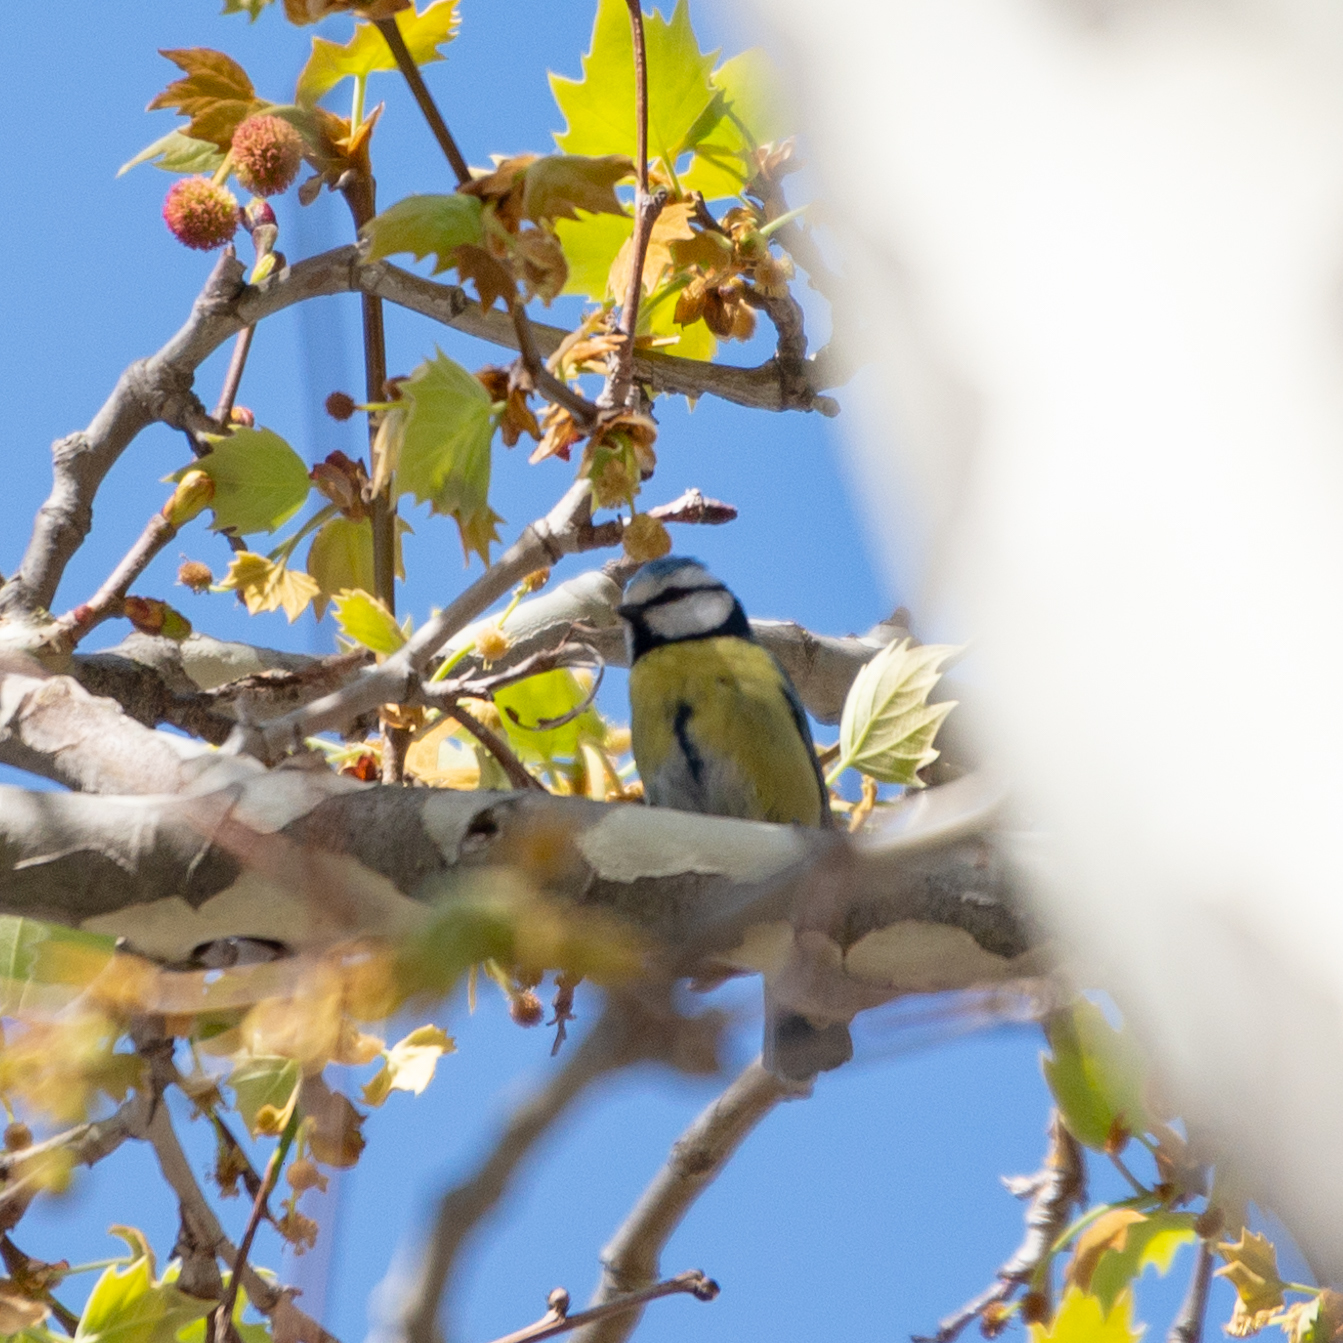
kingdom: Animalia
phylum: Chordata
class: Aves
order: Passeriformes
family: Paridae
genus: Cyanistes
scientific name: Cyanistes caeruleus
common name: Eurasian blue tit
